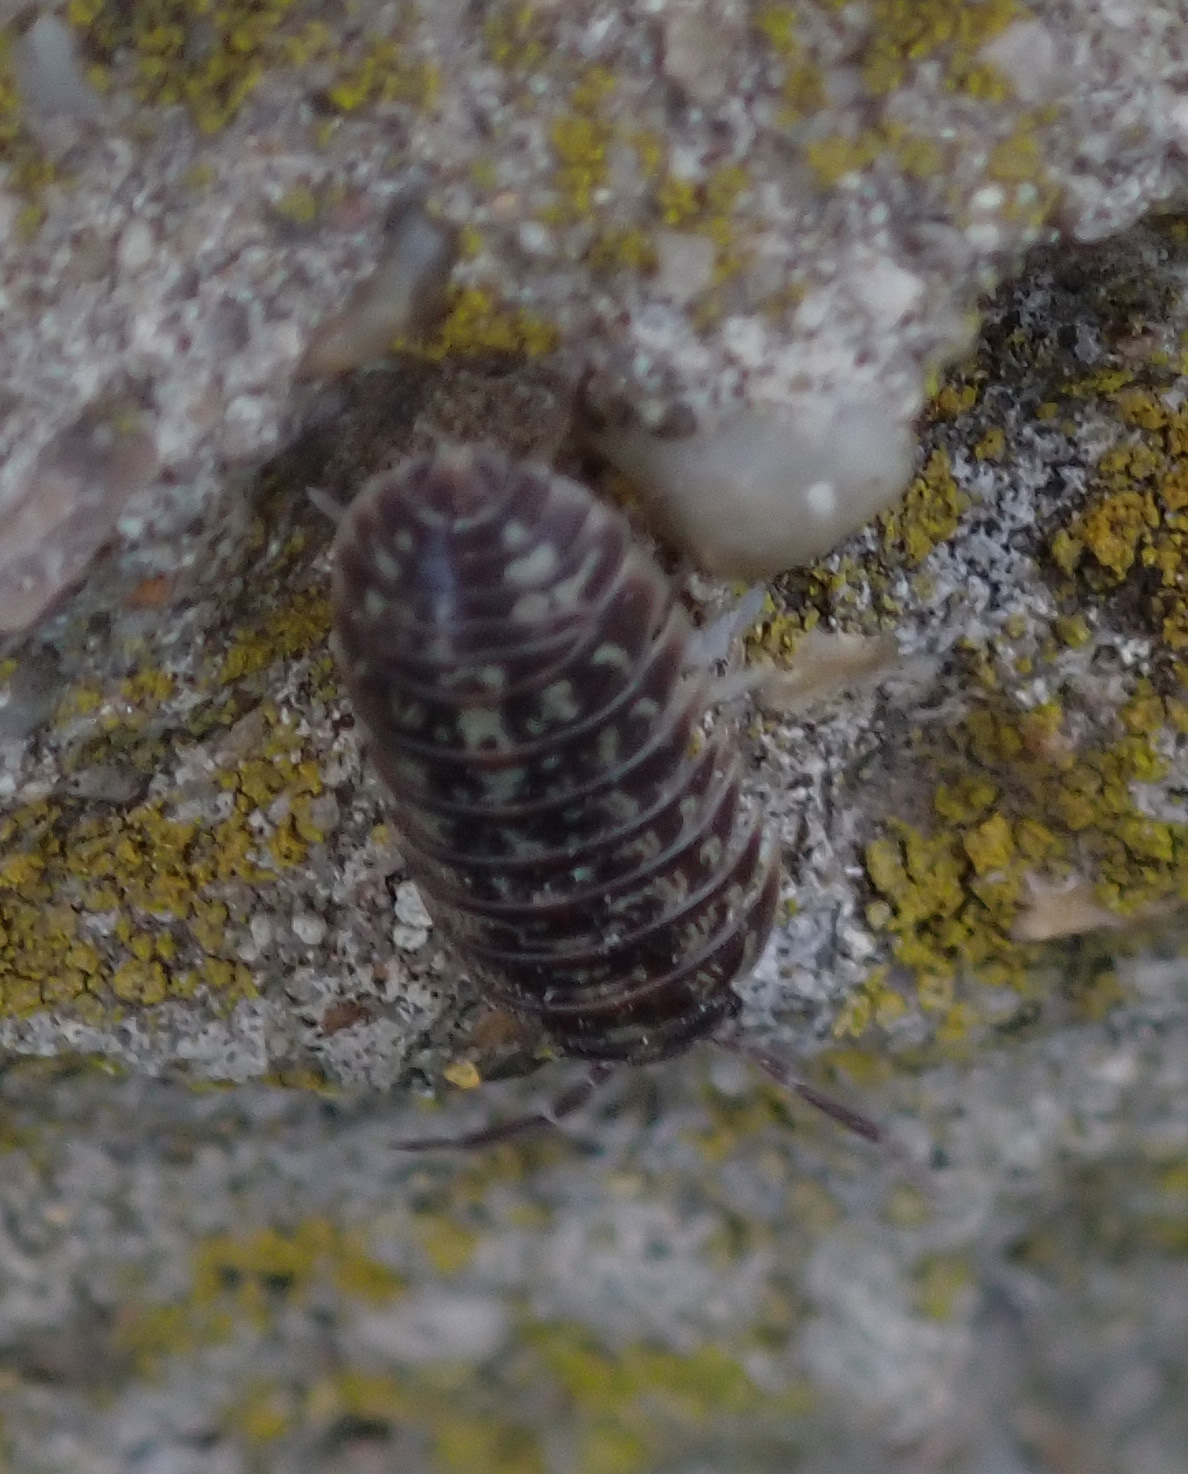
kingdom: Animalia
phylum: Arthropoda
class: Malacostraca
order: Isopoda
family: Armadillidiidae
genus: Armadillidium
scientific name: Armadillidium versicolor
